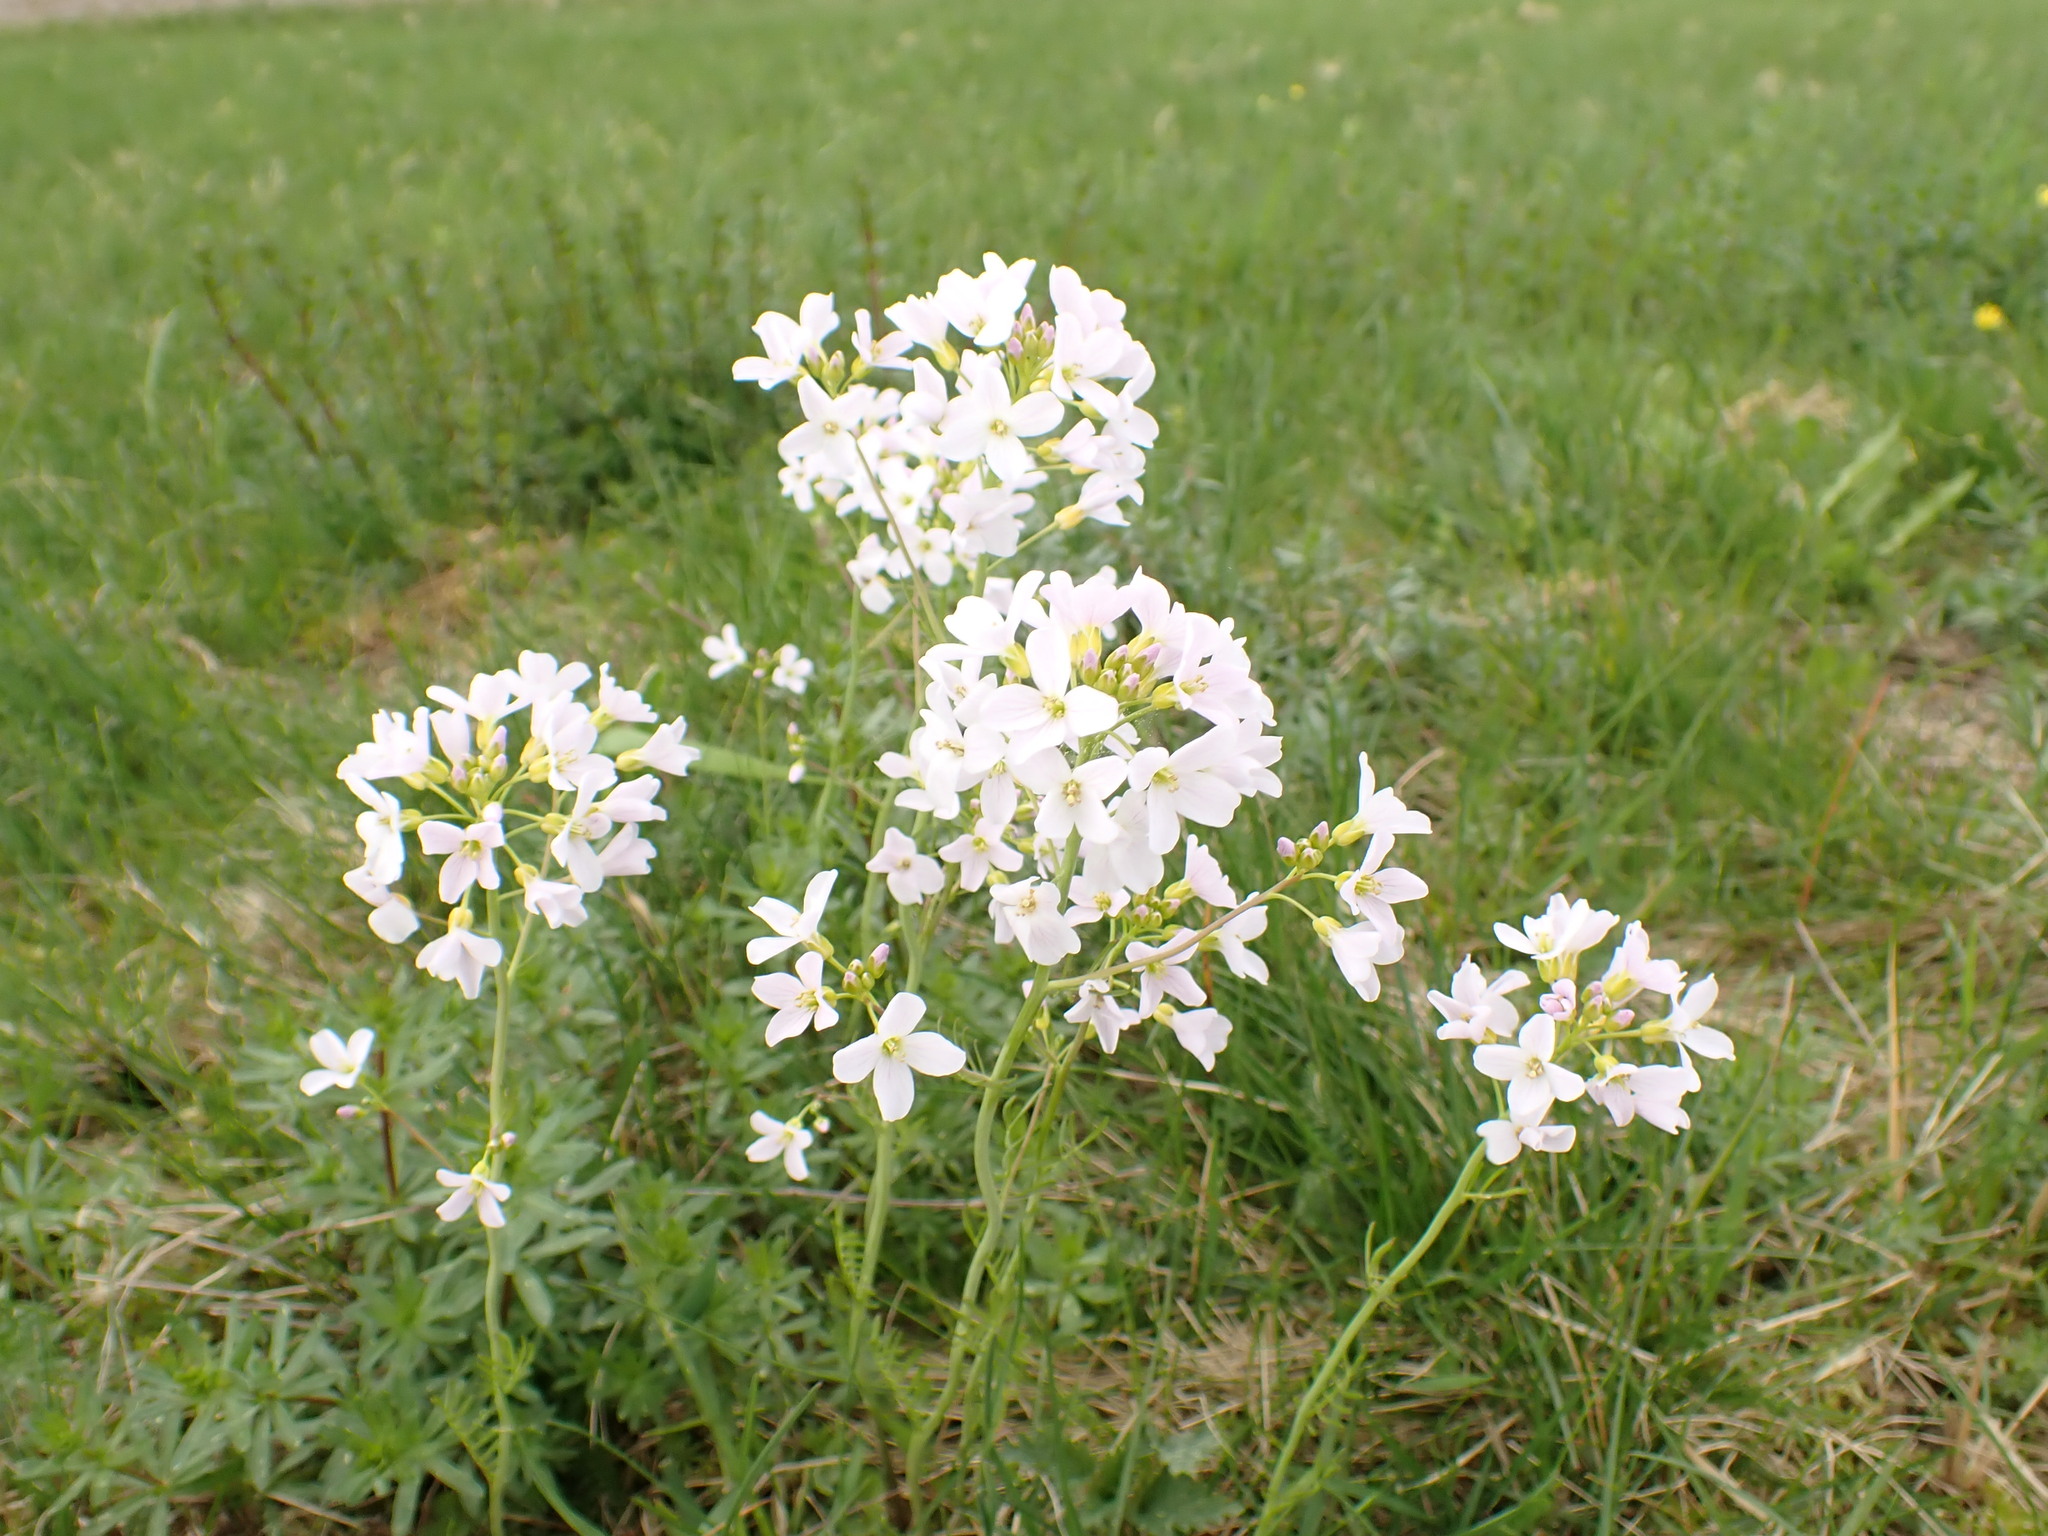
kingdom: Plantae
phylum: Tracheophyta
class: Magnoliopsida
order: Brassicales
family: Brassicaceae
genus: Cardamine
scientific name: Cardamine pratensis
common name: Cuckoo flower
